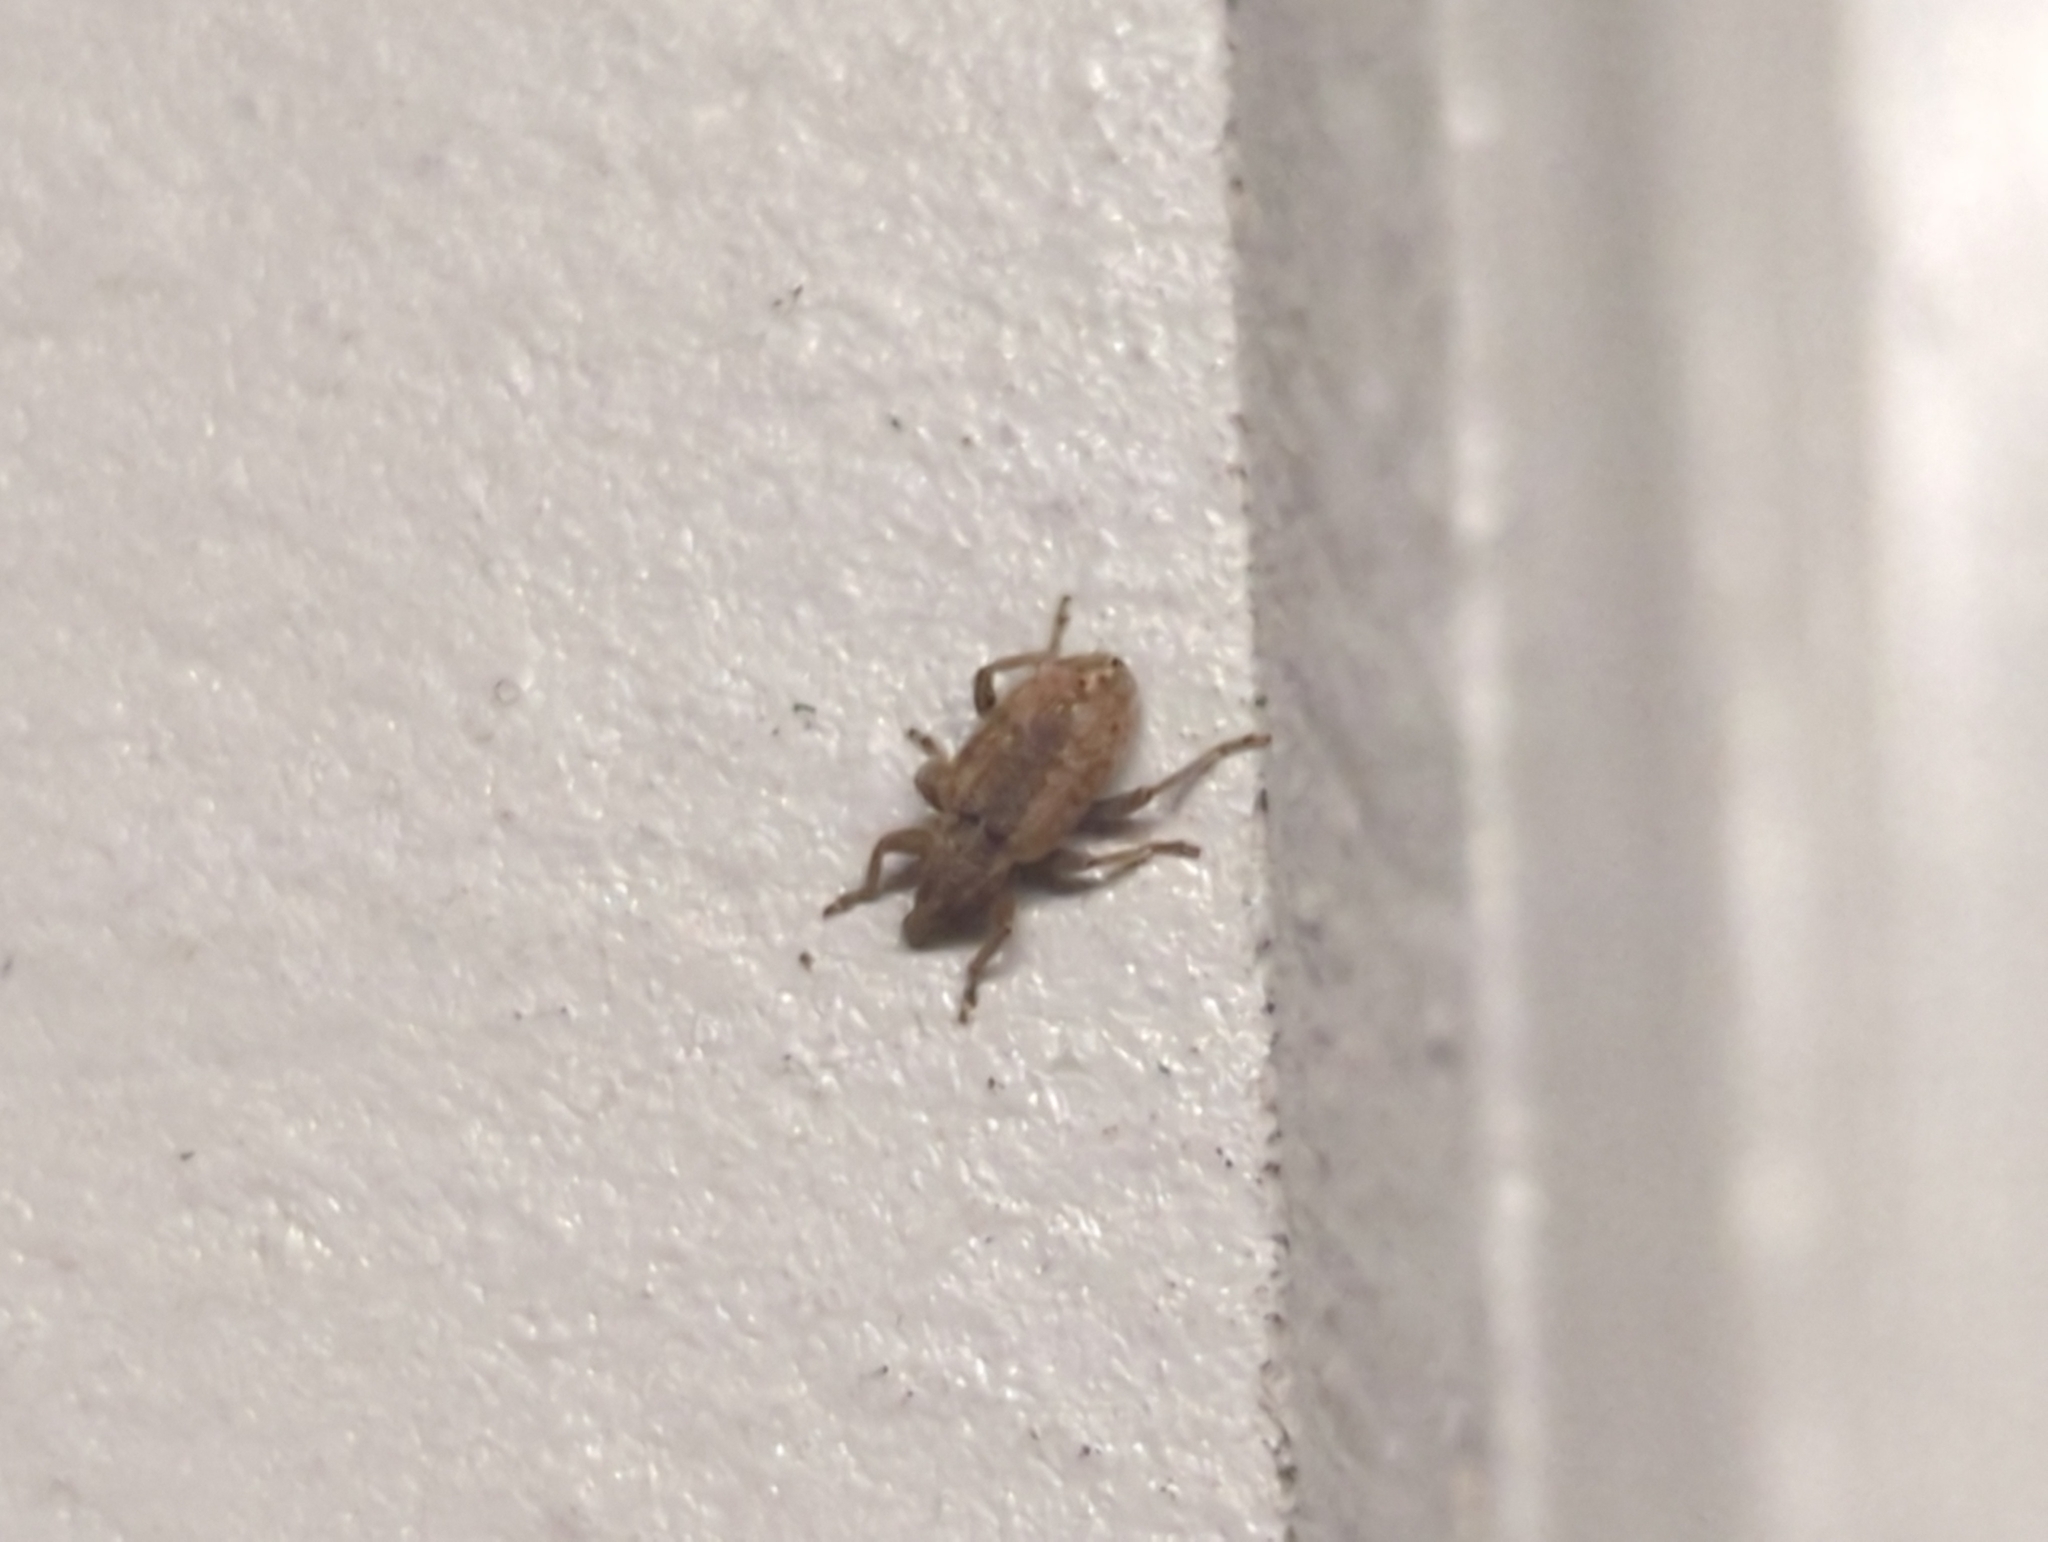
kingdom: Animalia
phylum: Arthropoda
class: Insecta
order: Coleoptera
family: Curculionidae
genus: Hypera
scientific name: Hypera postica
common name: Weevil
